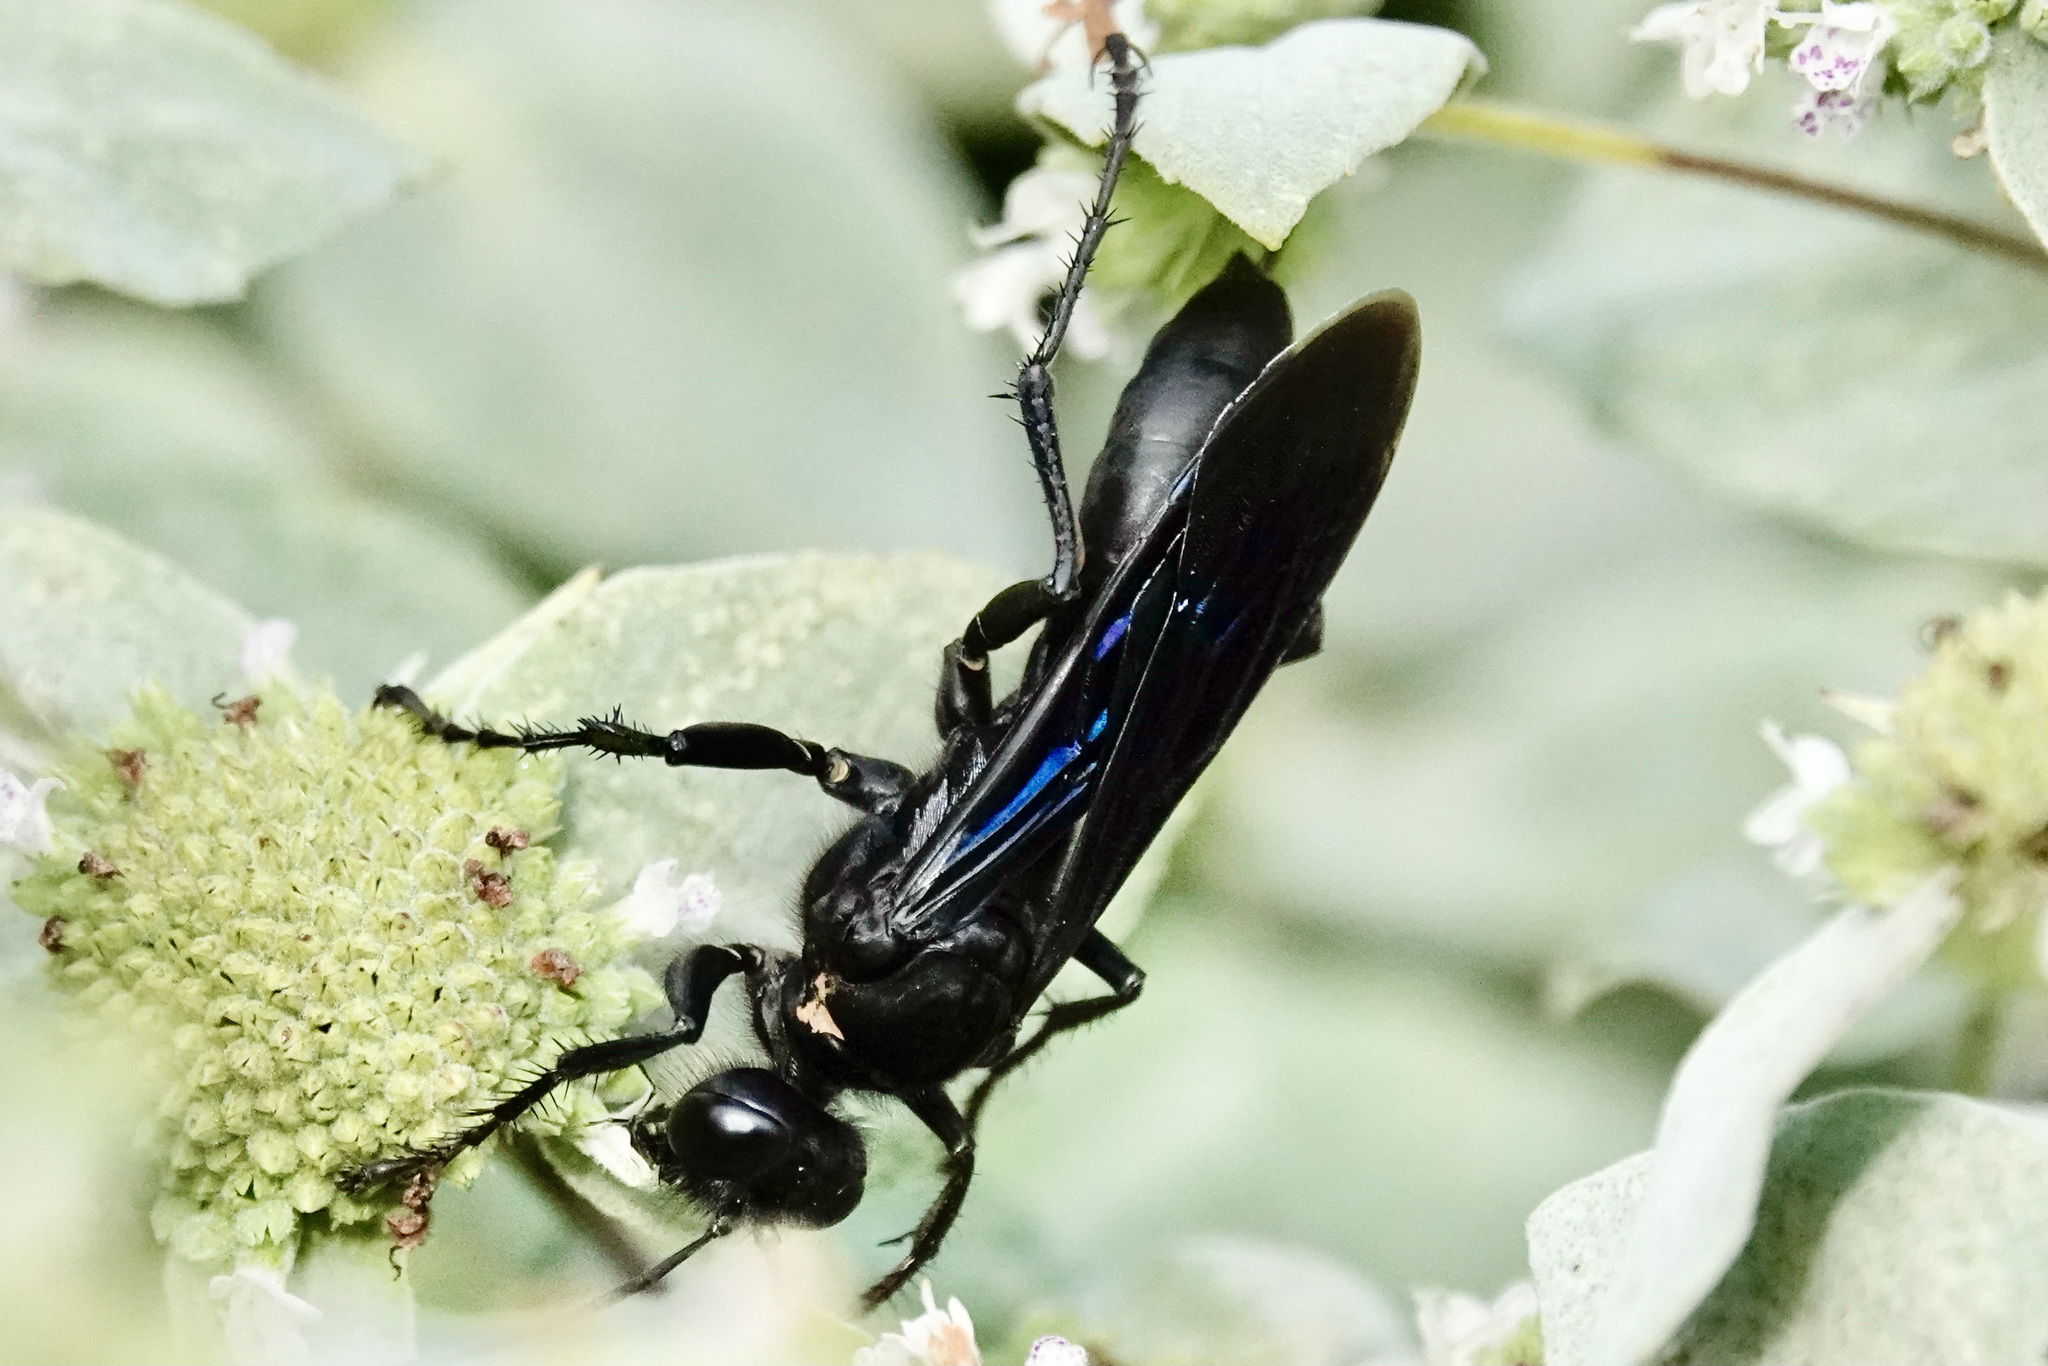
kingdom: Animalia
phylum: Arthropoda
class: Insecta
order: Hymenoptera
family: Sphecidae
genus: Sphex
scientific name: Sphex pensylvanicus
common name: Great black digger wasp
